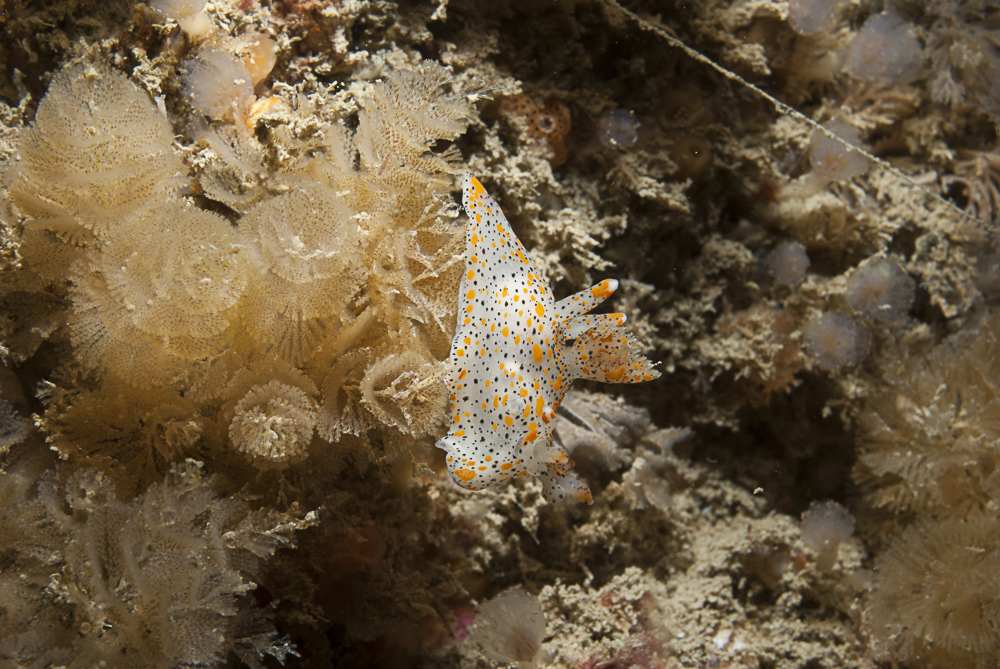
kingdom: Animalia
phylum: Mollusca
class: Gastropoda
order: Nudibranchia
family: Polyceridae
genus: Thecacera
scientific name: Thecacera pennigera
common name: Thecacera
